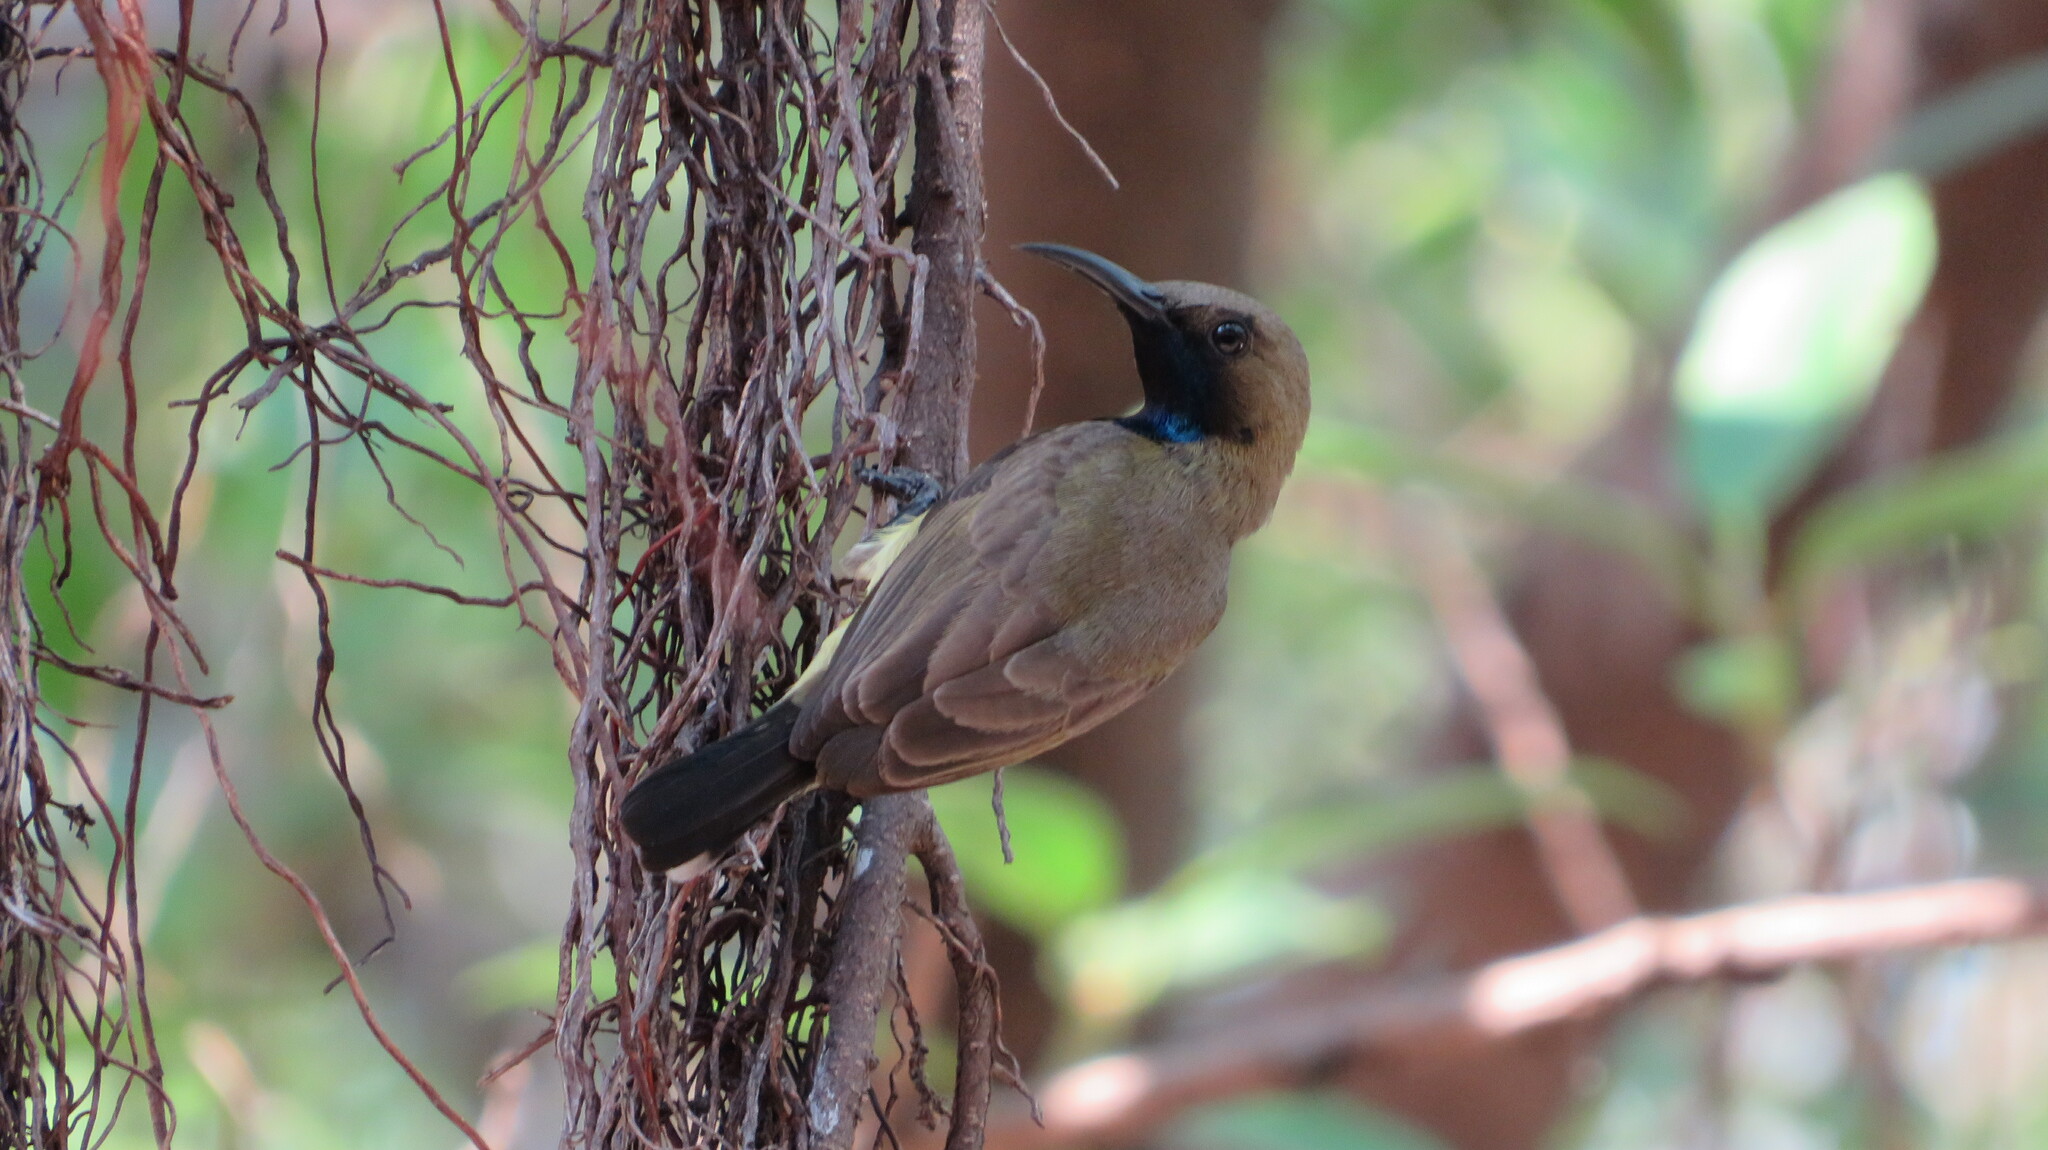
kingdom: Animalia
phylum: Chordata
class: Aves
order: Passeriformes
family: Nectariniidae
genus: Cinnyris
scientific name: Cinnyris
